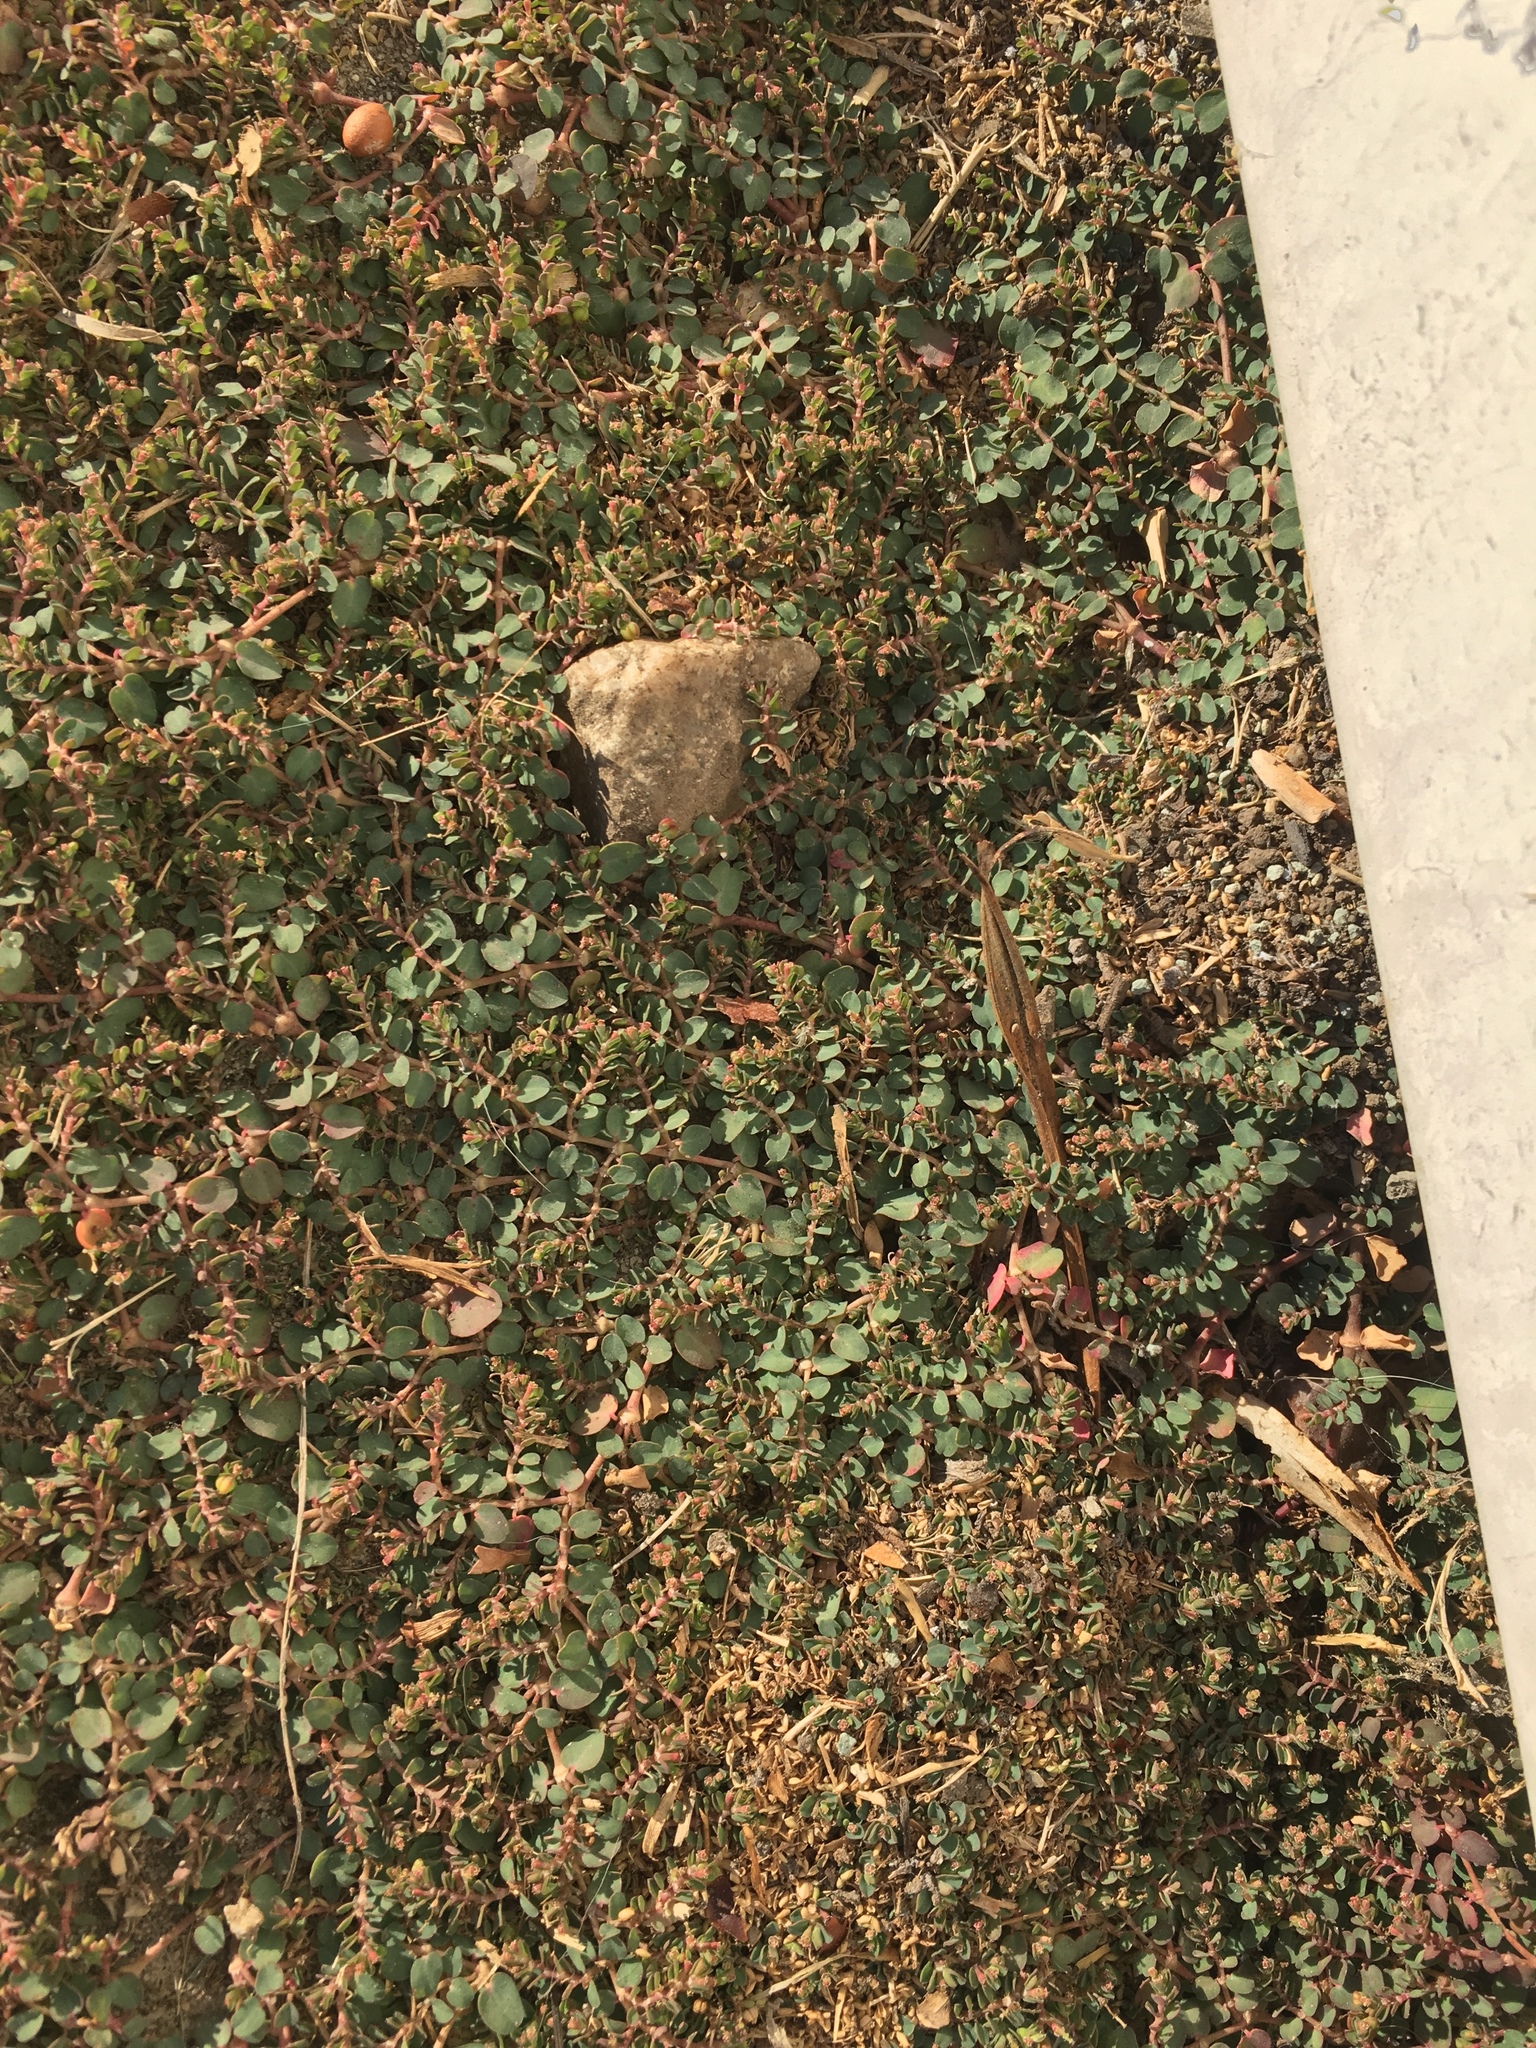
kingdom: Plantae
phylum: Tracheophyta
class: Magnoliopsida
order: Malpighiales
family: Euphorbiaceae
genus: Euphorbia
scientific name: Euphorbia serpens
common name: Matted sandmat
